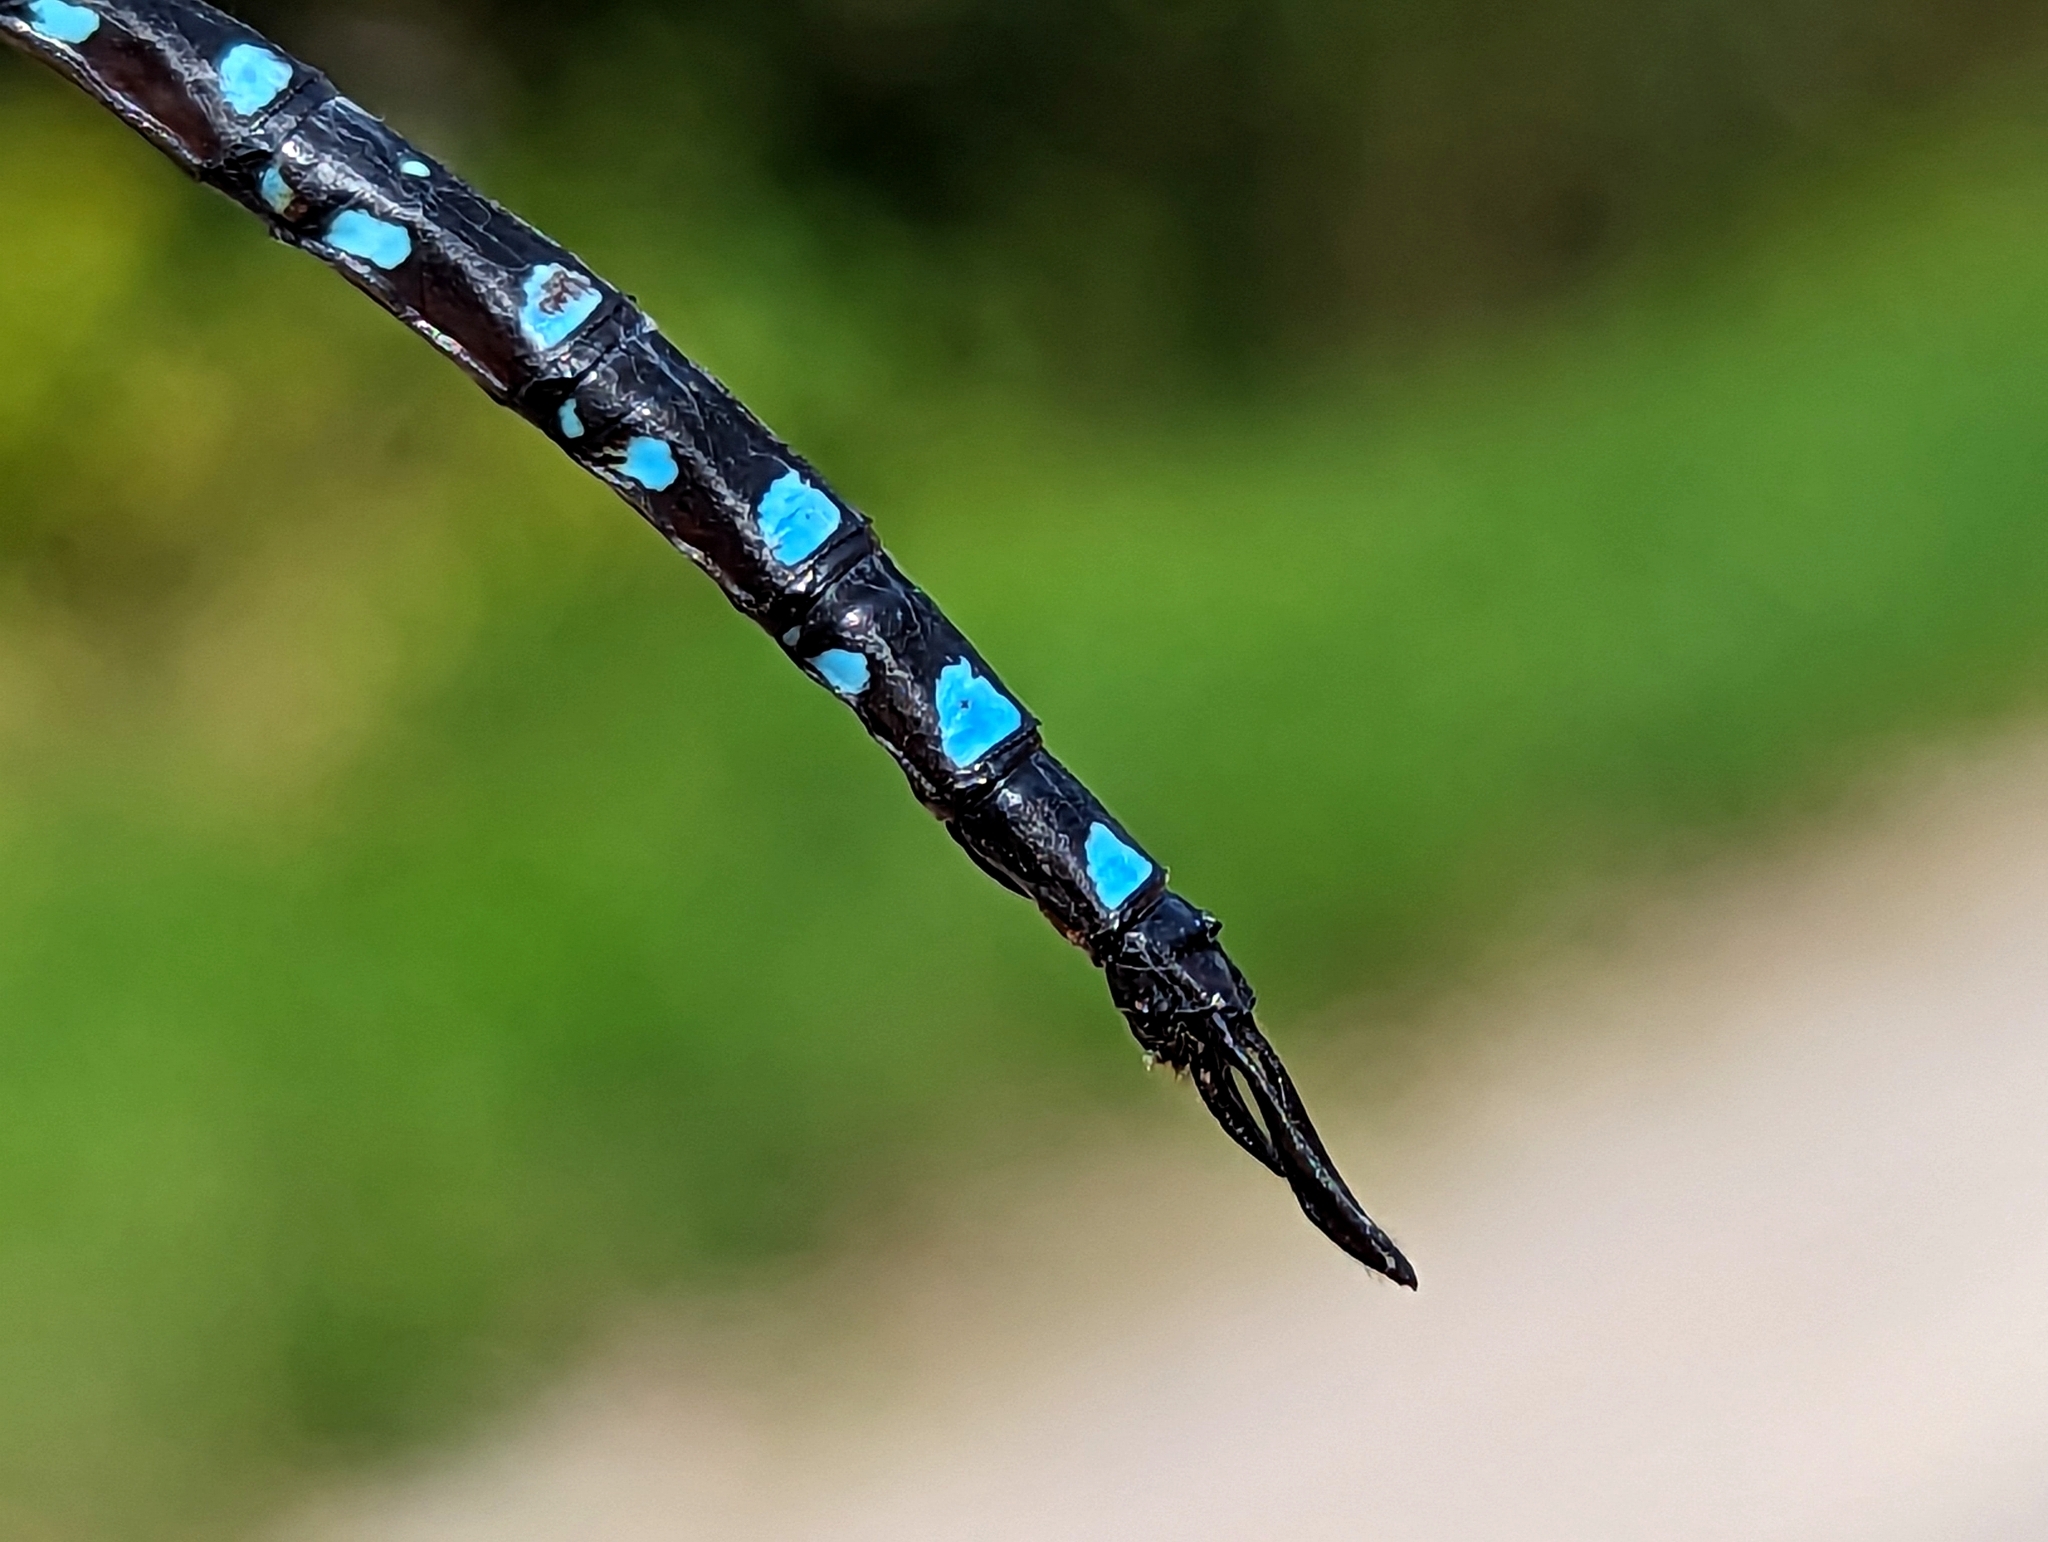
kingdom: Animalia
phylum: Arthropoda
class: Insecta
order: Odonata
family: Aeshnidae
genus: Aeshna
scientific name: Aeshna tuberculifera
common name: Aeschne à tubercules
